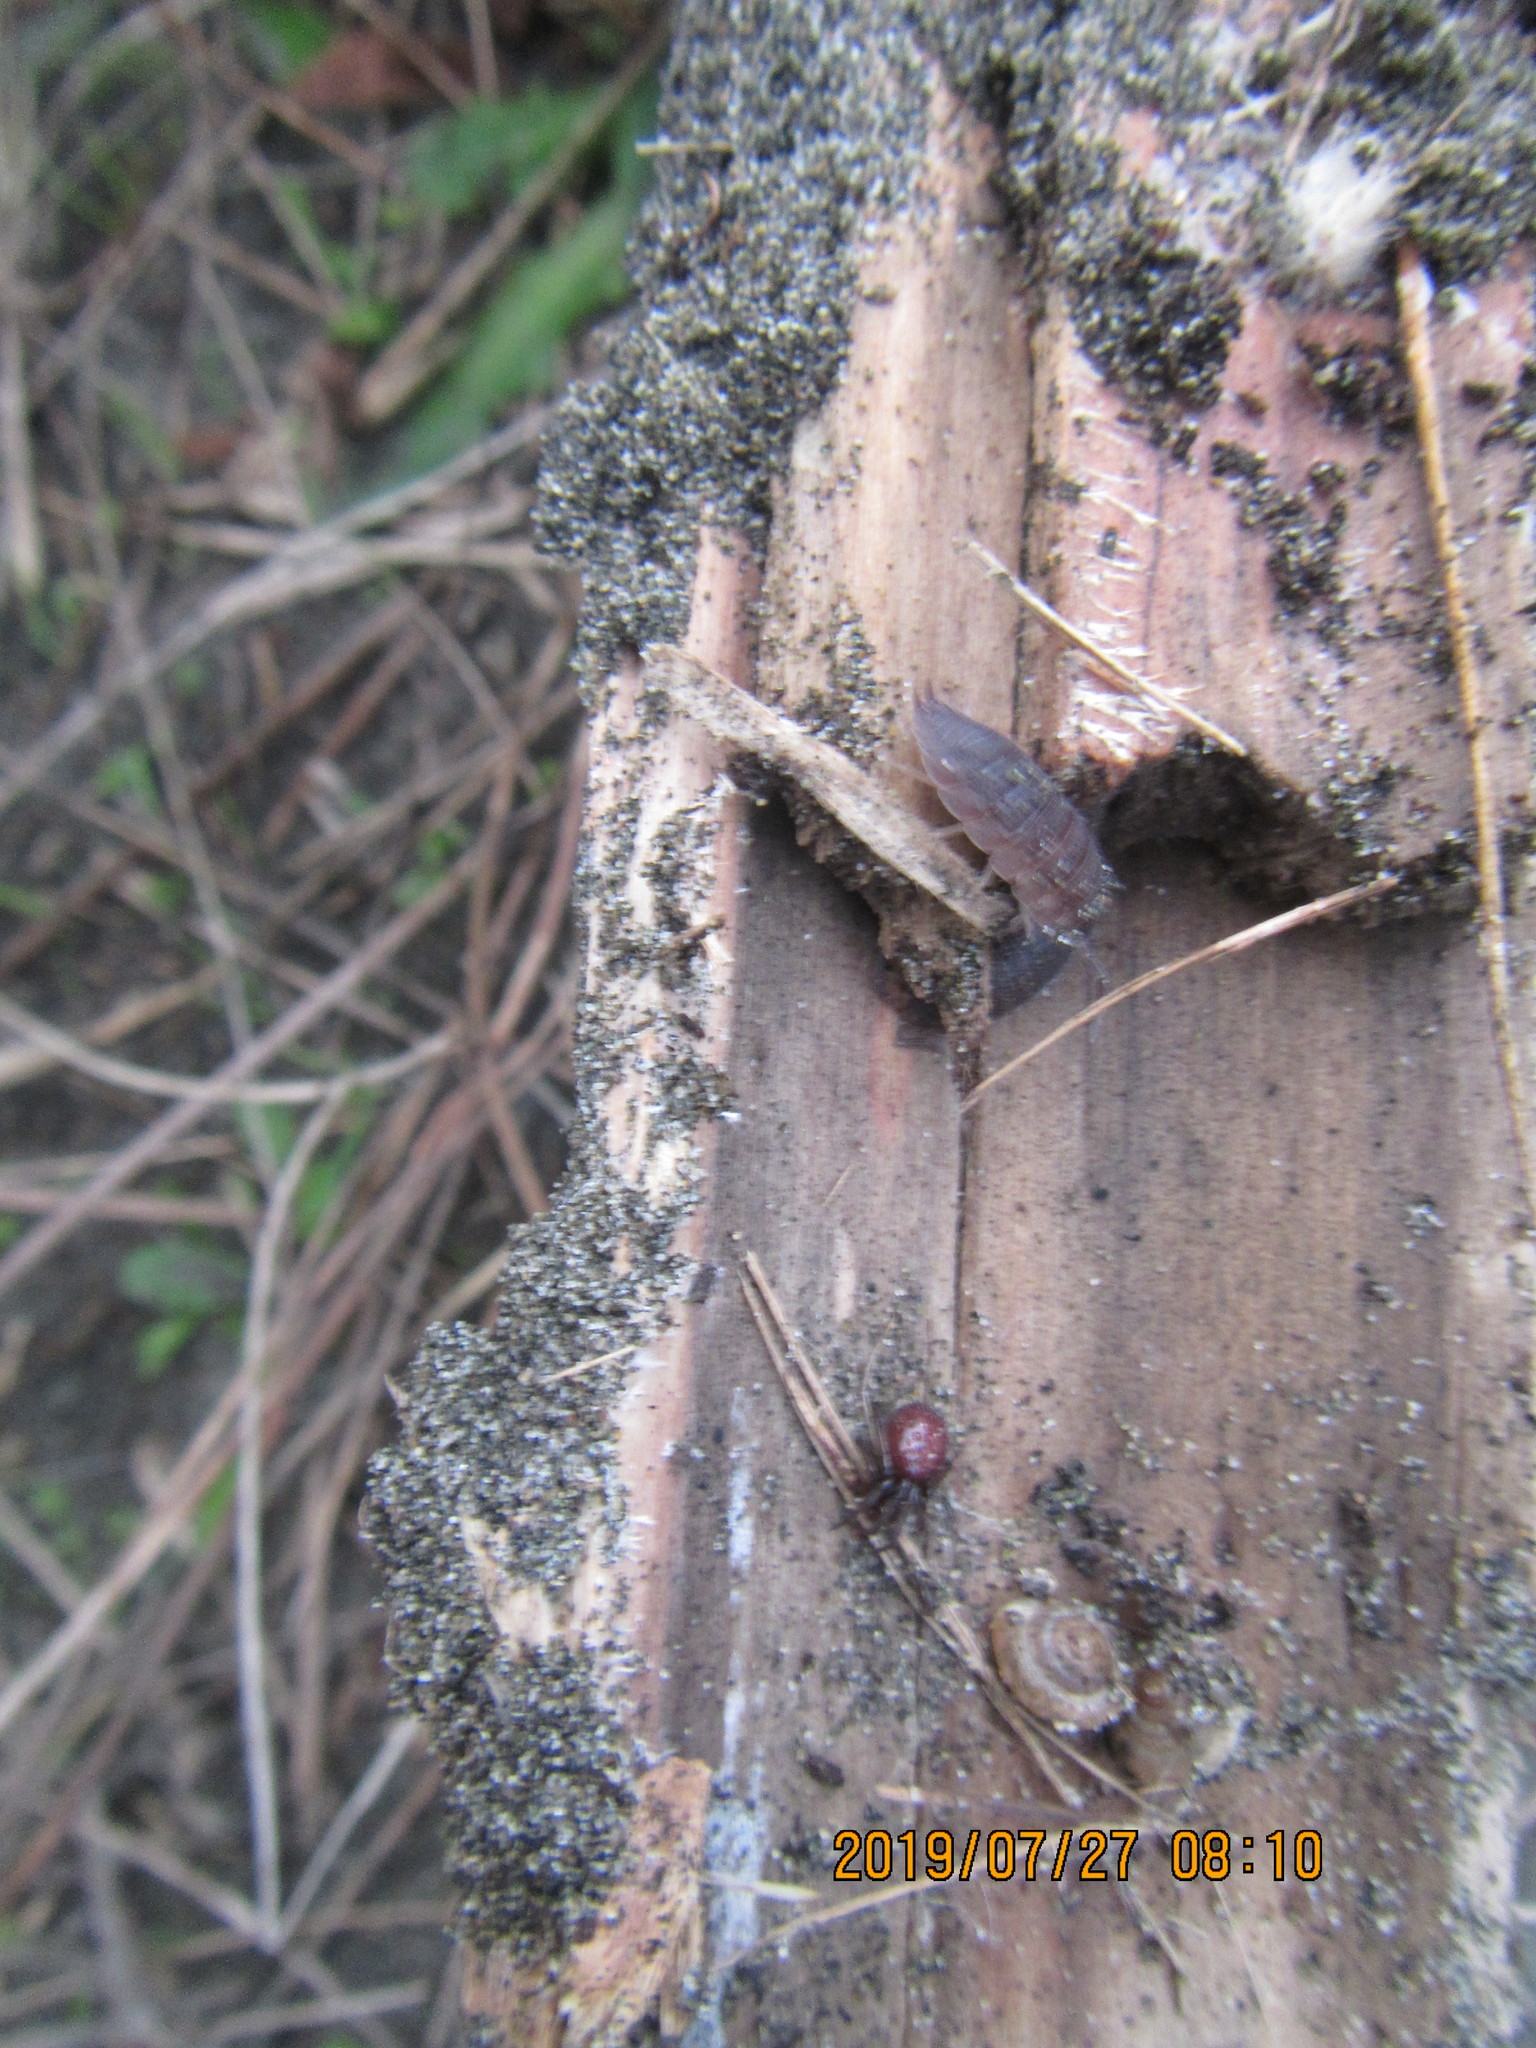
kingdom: Animalia
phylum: Arthropoda
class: Malacostraca
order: Isopoda
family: Porcellionidae
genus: Porcellio
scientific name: Porcellio scaber
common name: Common rough woodlouse
